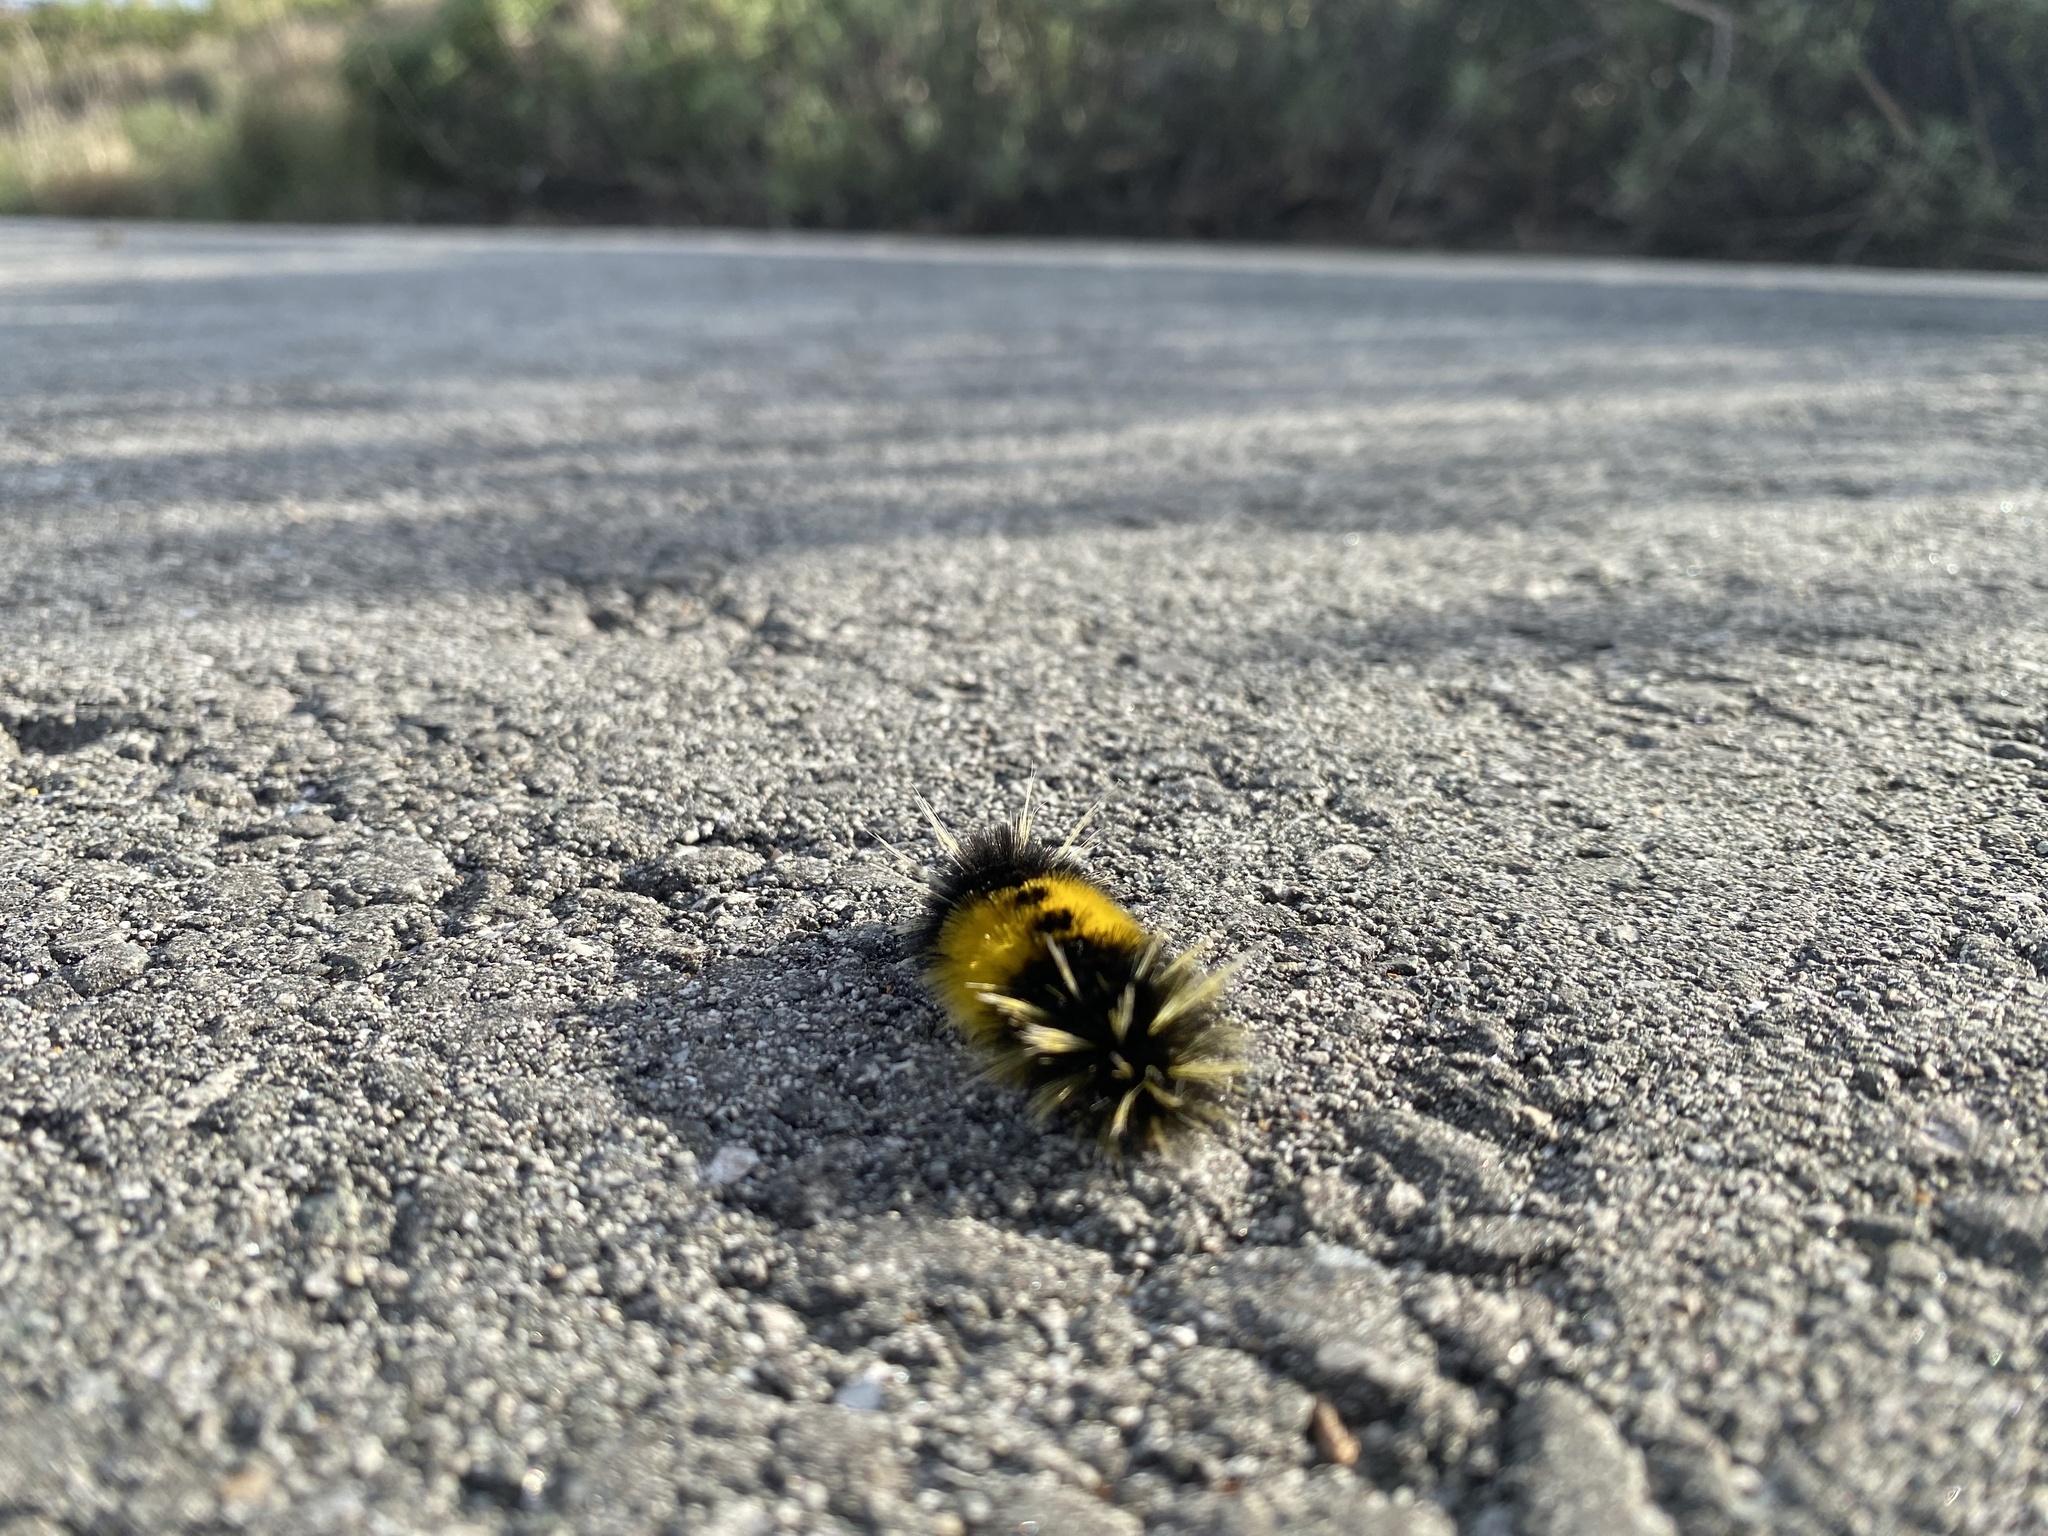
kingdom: Animalia
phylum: Arthropoda
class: Insecta
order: Lepidoptera
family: Erebidae
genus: Lophocampa
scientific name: Lophocampa maculata
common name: Spotted tussock moth
